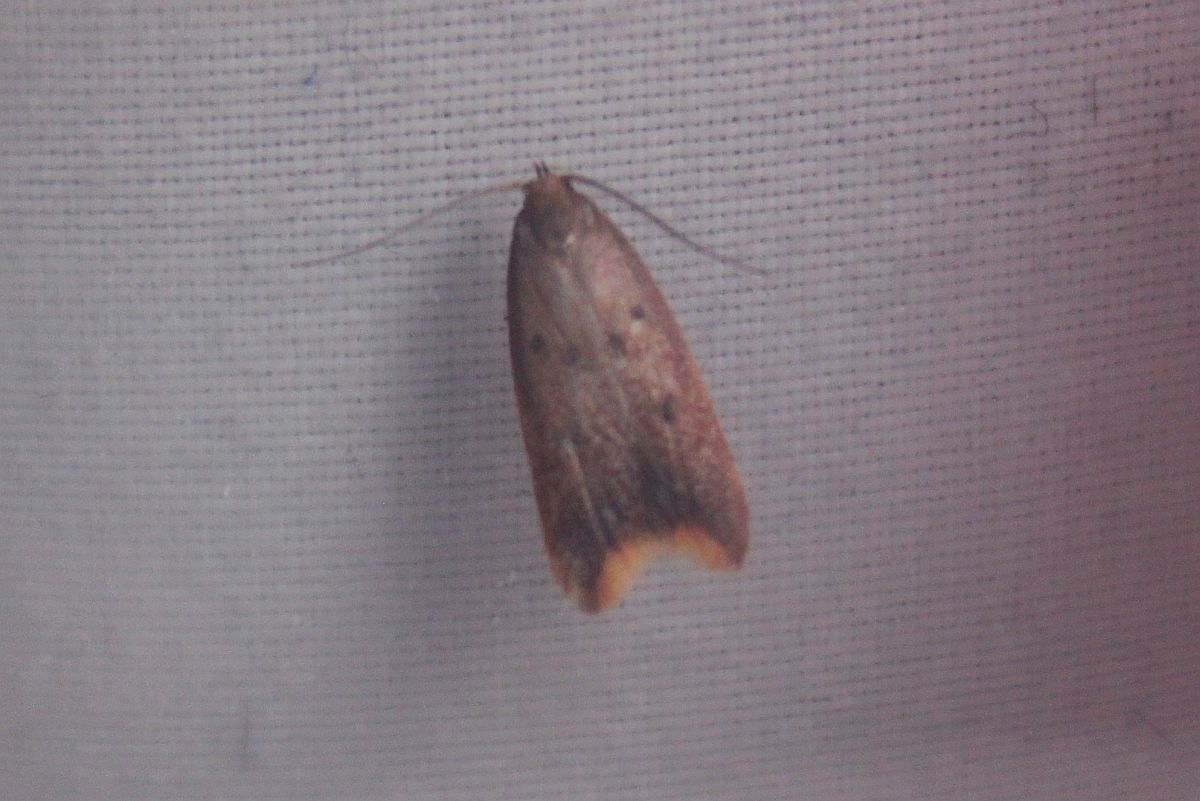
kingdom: Animalia
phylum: Arthropoda
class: Insecta
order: Lepidoptera
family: Oecophoridae
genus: Tachystola
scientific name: Tachystola acroxantha
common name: Ruddy streak
